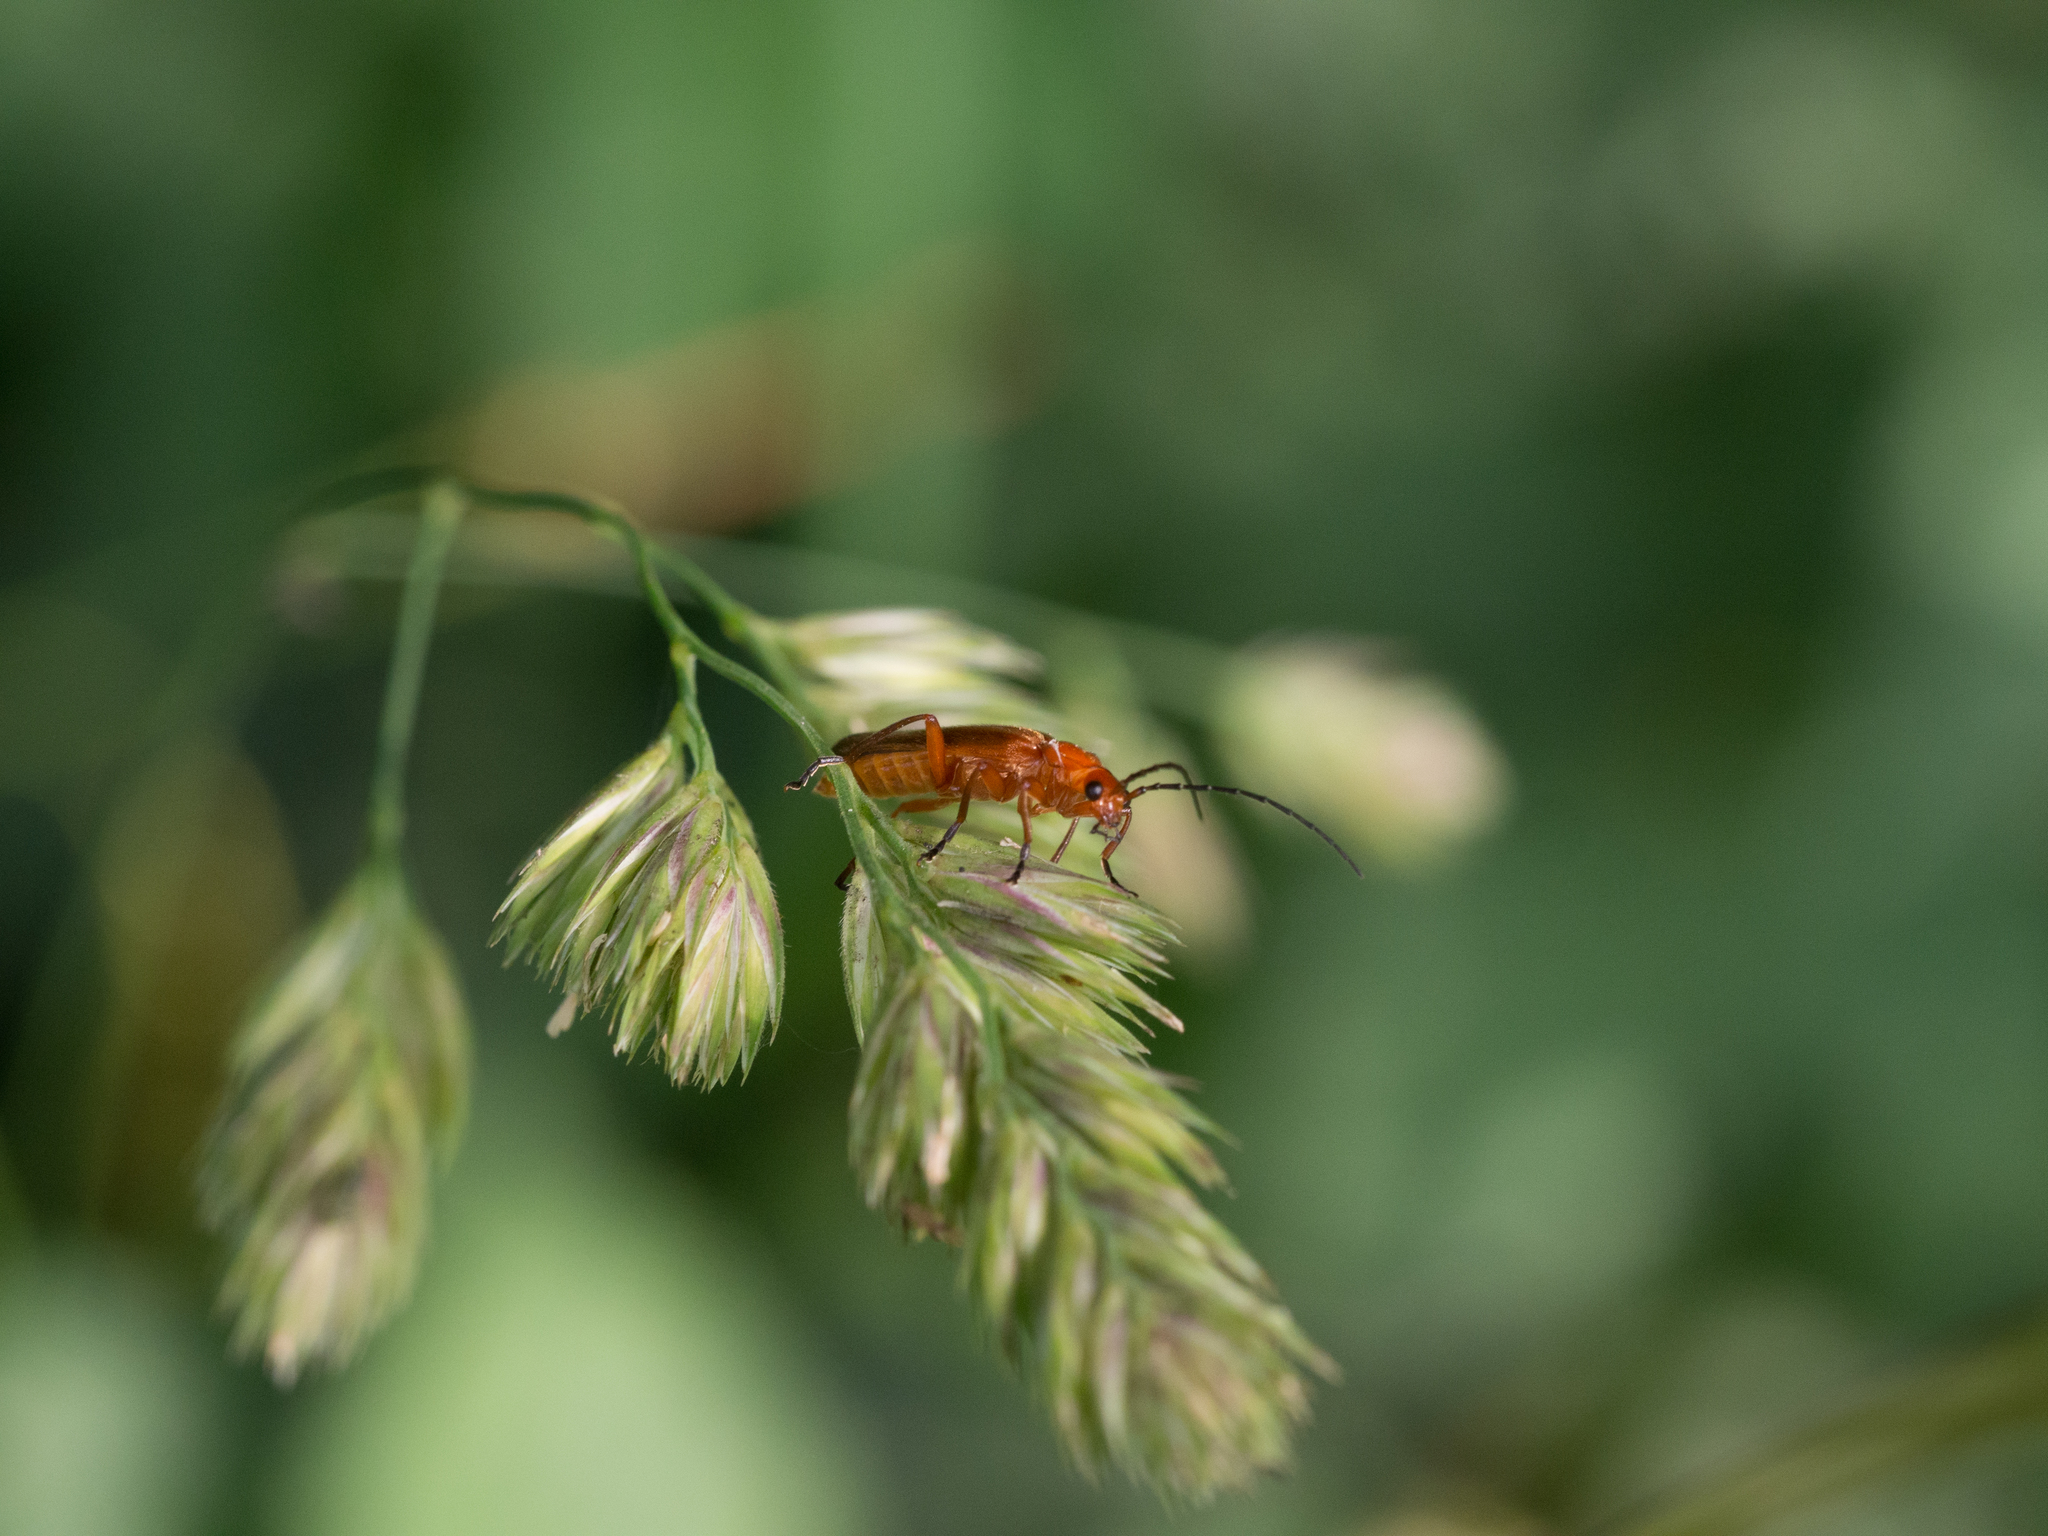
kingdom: Animalia
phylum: Arthropoda
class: Insecta
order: Coleoptera
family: Cantharidae
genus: Rhagonycha
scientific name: Rhagonycha fulva
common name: Common red soldier beetle
